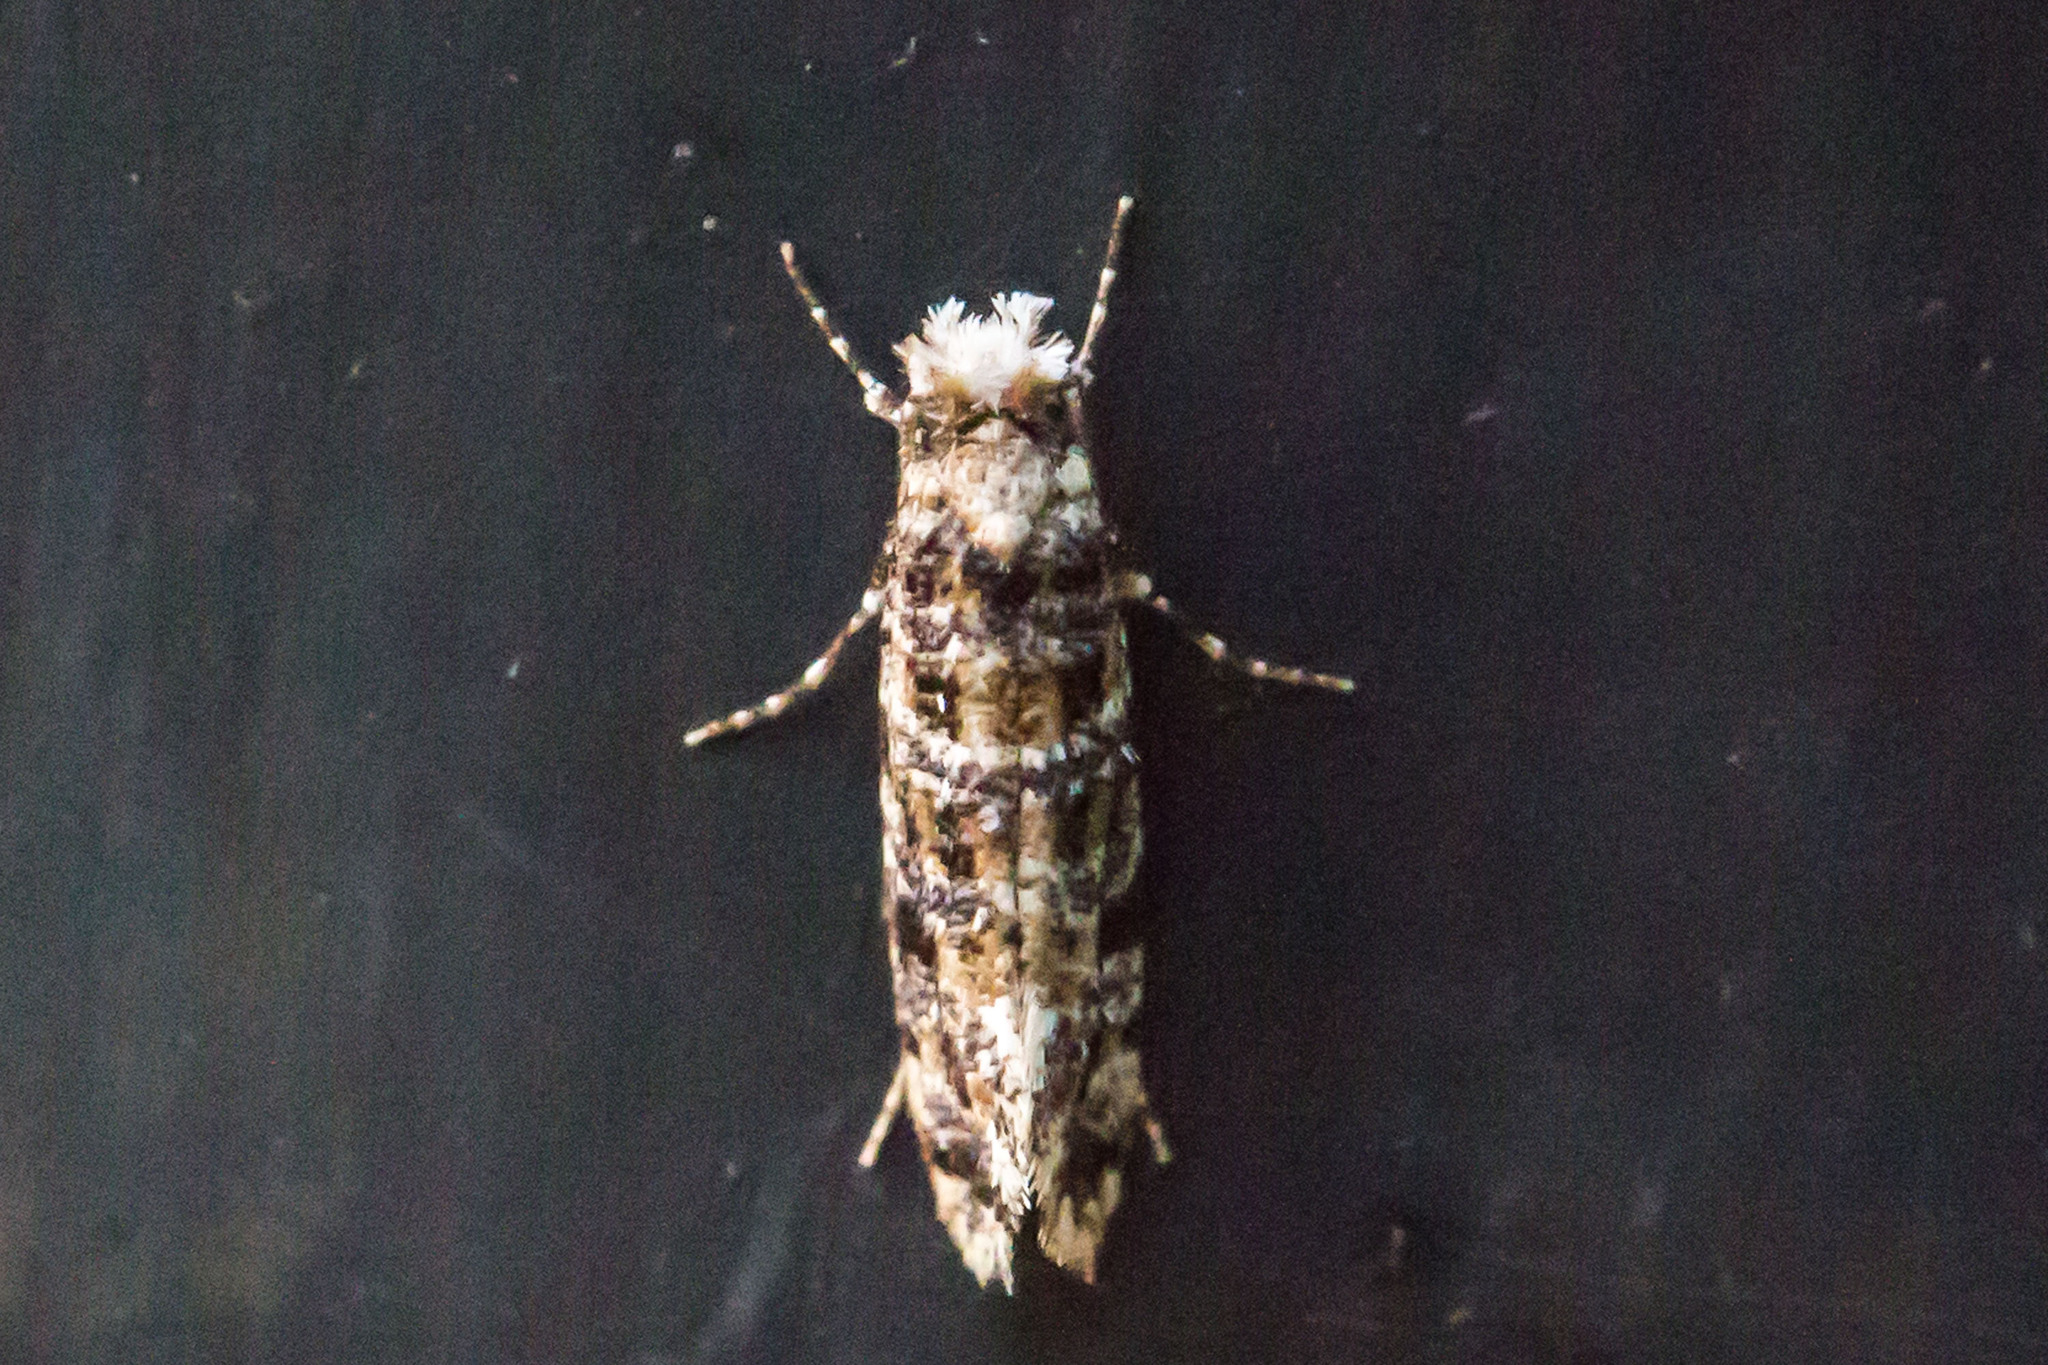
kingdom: Animalia
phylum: Arthropoda
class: Insecta
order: Lepidoptera
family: Tineidae
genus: Xylesthia
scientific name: Xylesthia pruniramiella
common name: Clemens' bark moth
